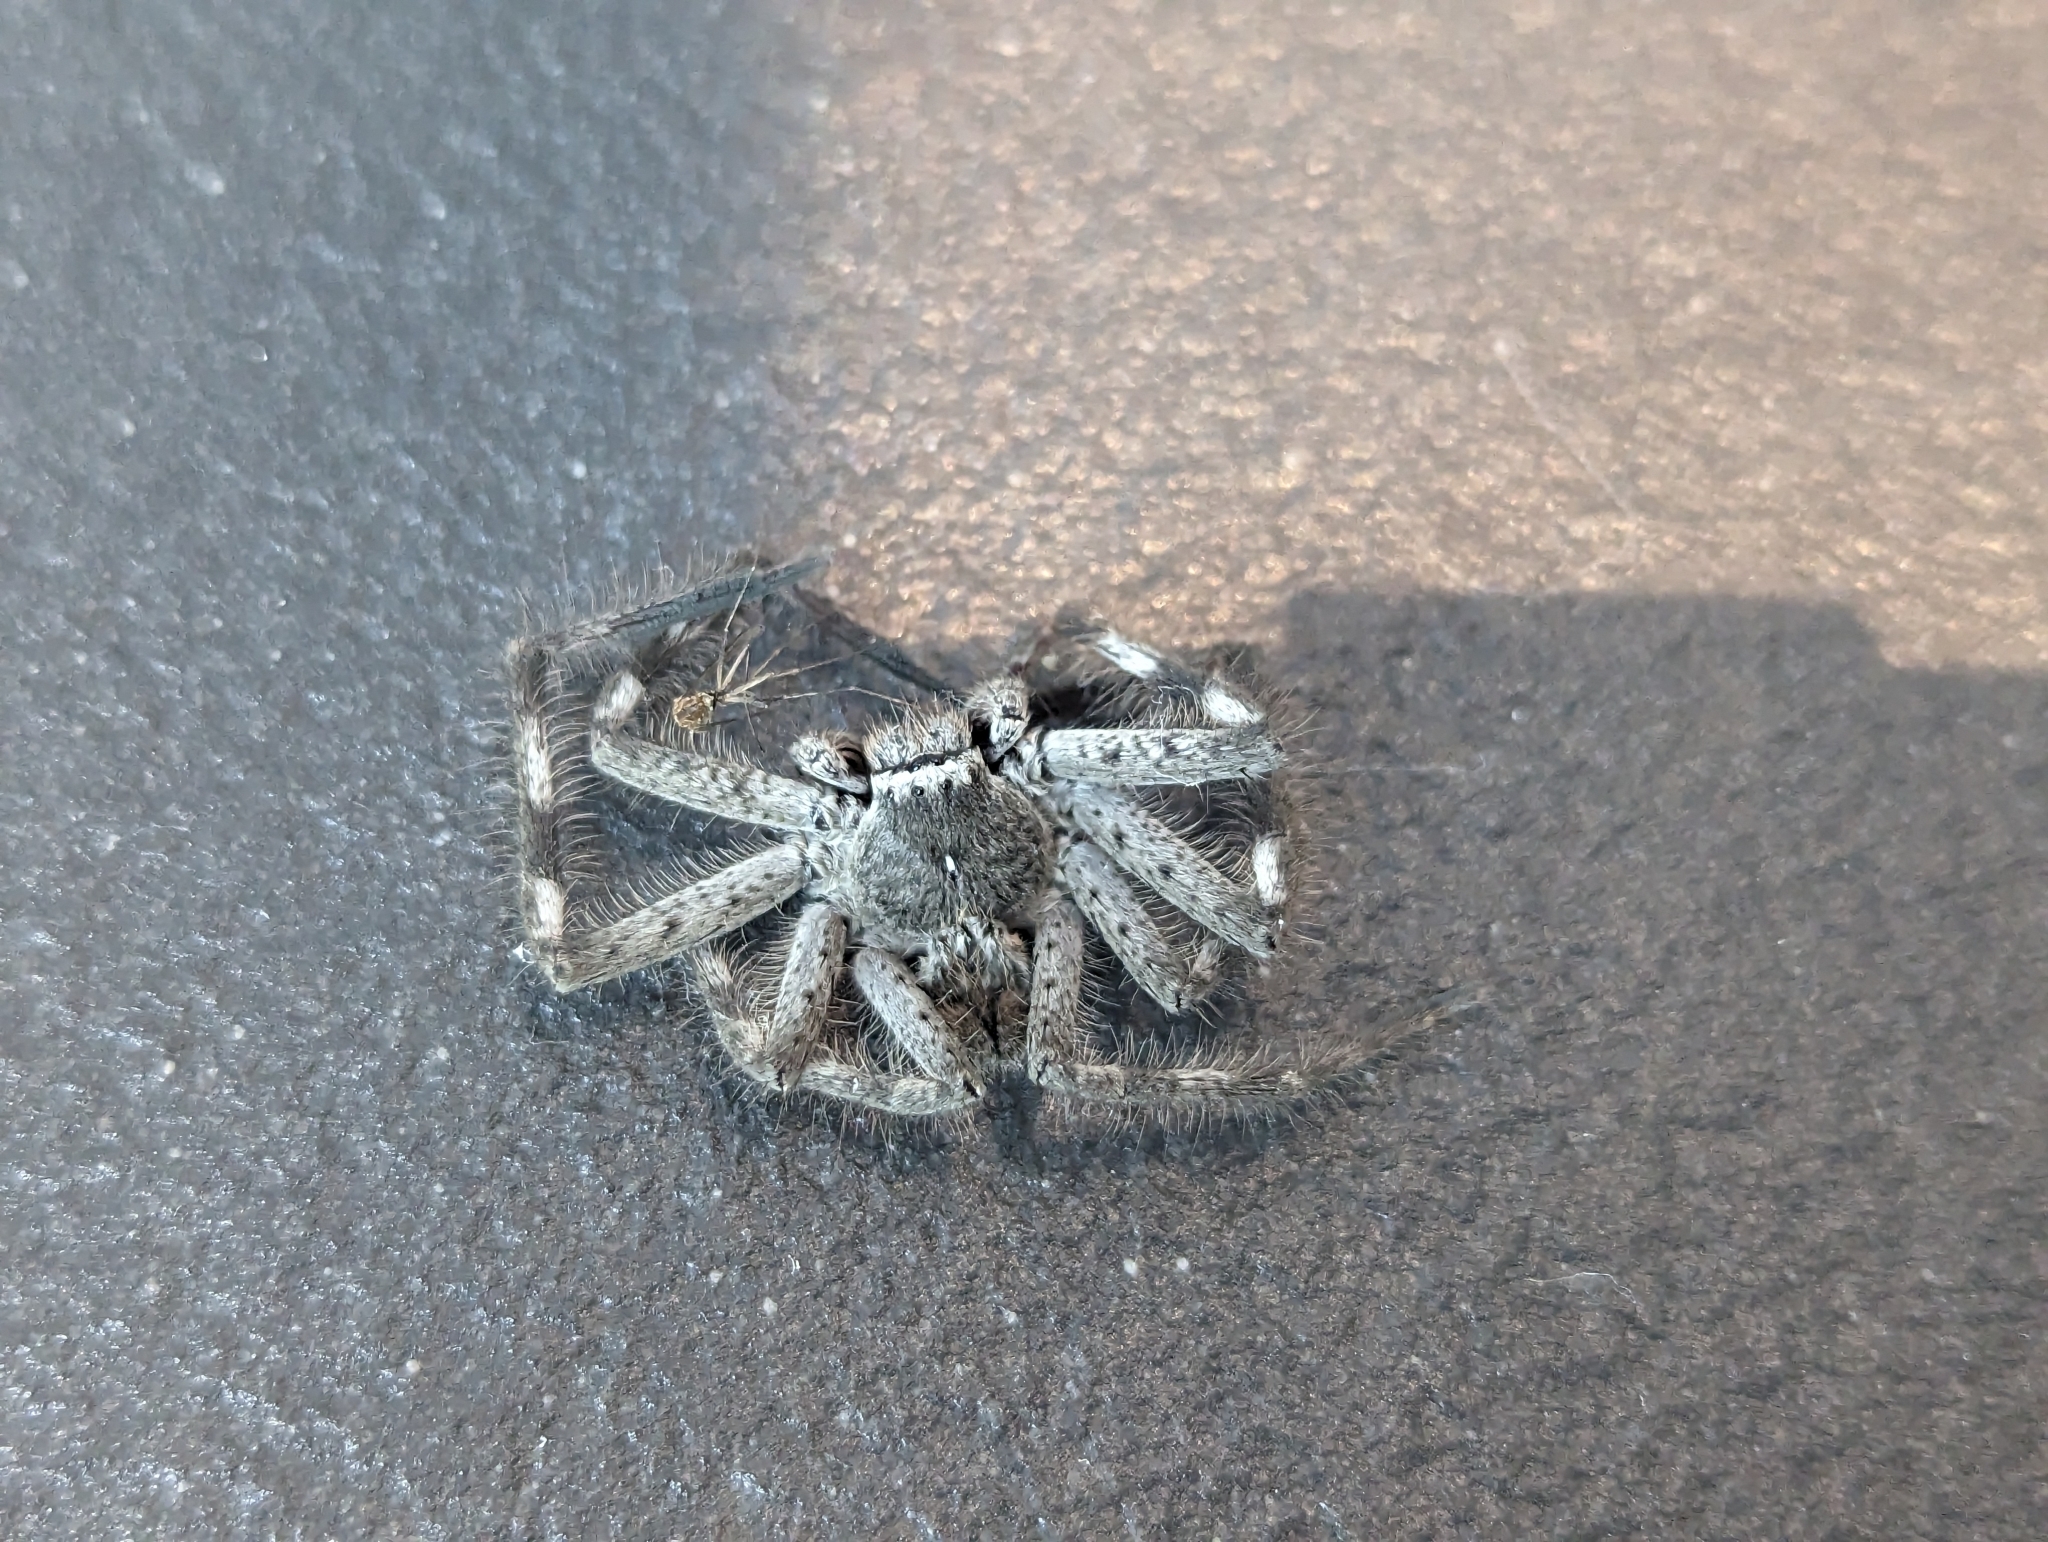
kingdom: Animalia
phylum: Arthropoda
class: Arachnida
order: Araneae
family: Sparassidae
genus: Isopedella
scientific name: Isopedella victorialis
